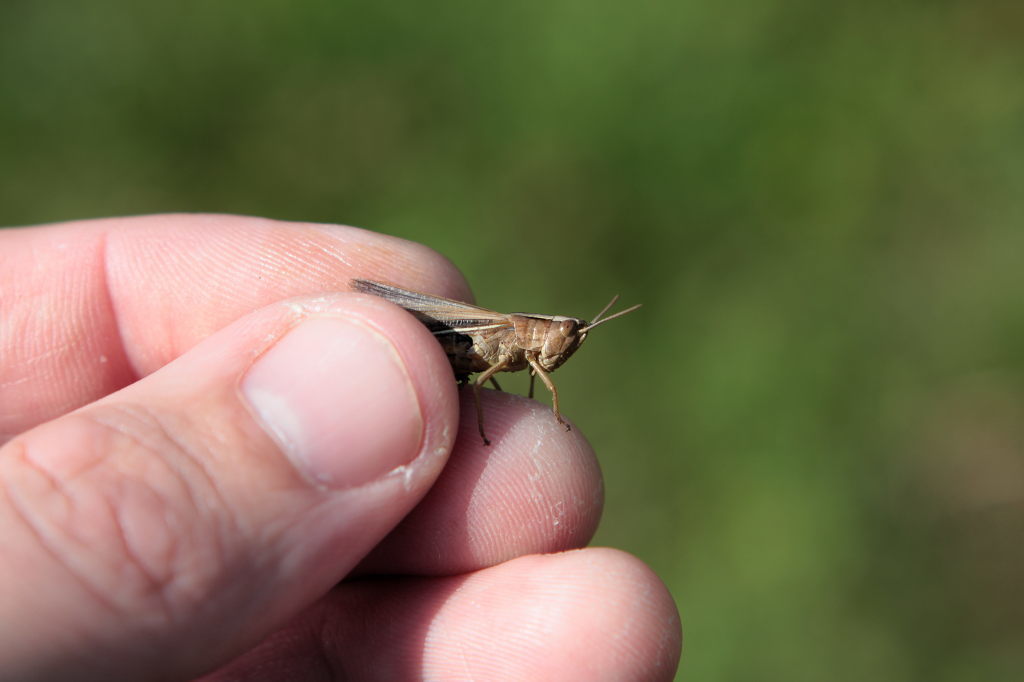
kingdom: Animalia
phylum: Arthropoda
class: Insecta
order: Orthoptera
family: Acrididae
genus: Chorthippus
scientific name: Chorthippus albomarginatus
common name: Lesser marsh grasshopper
